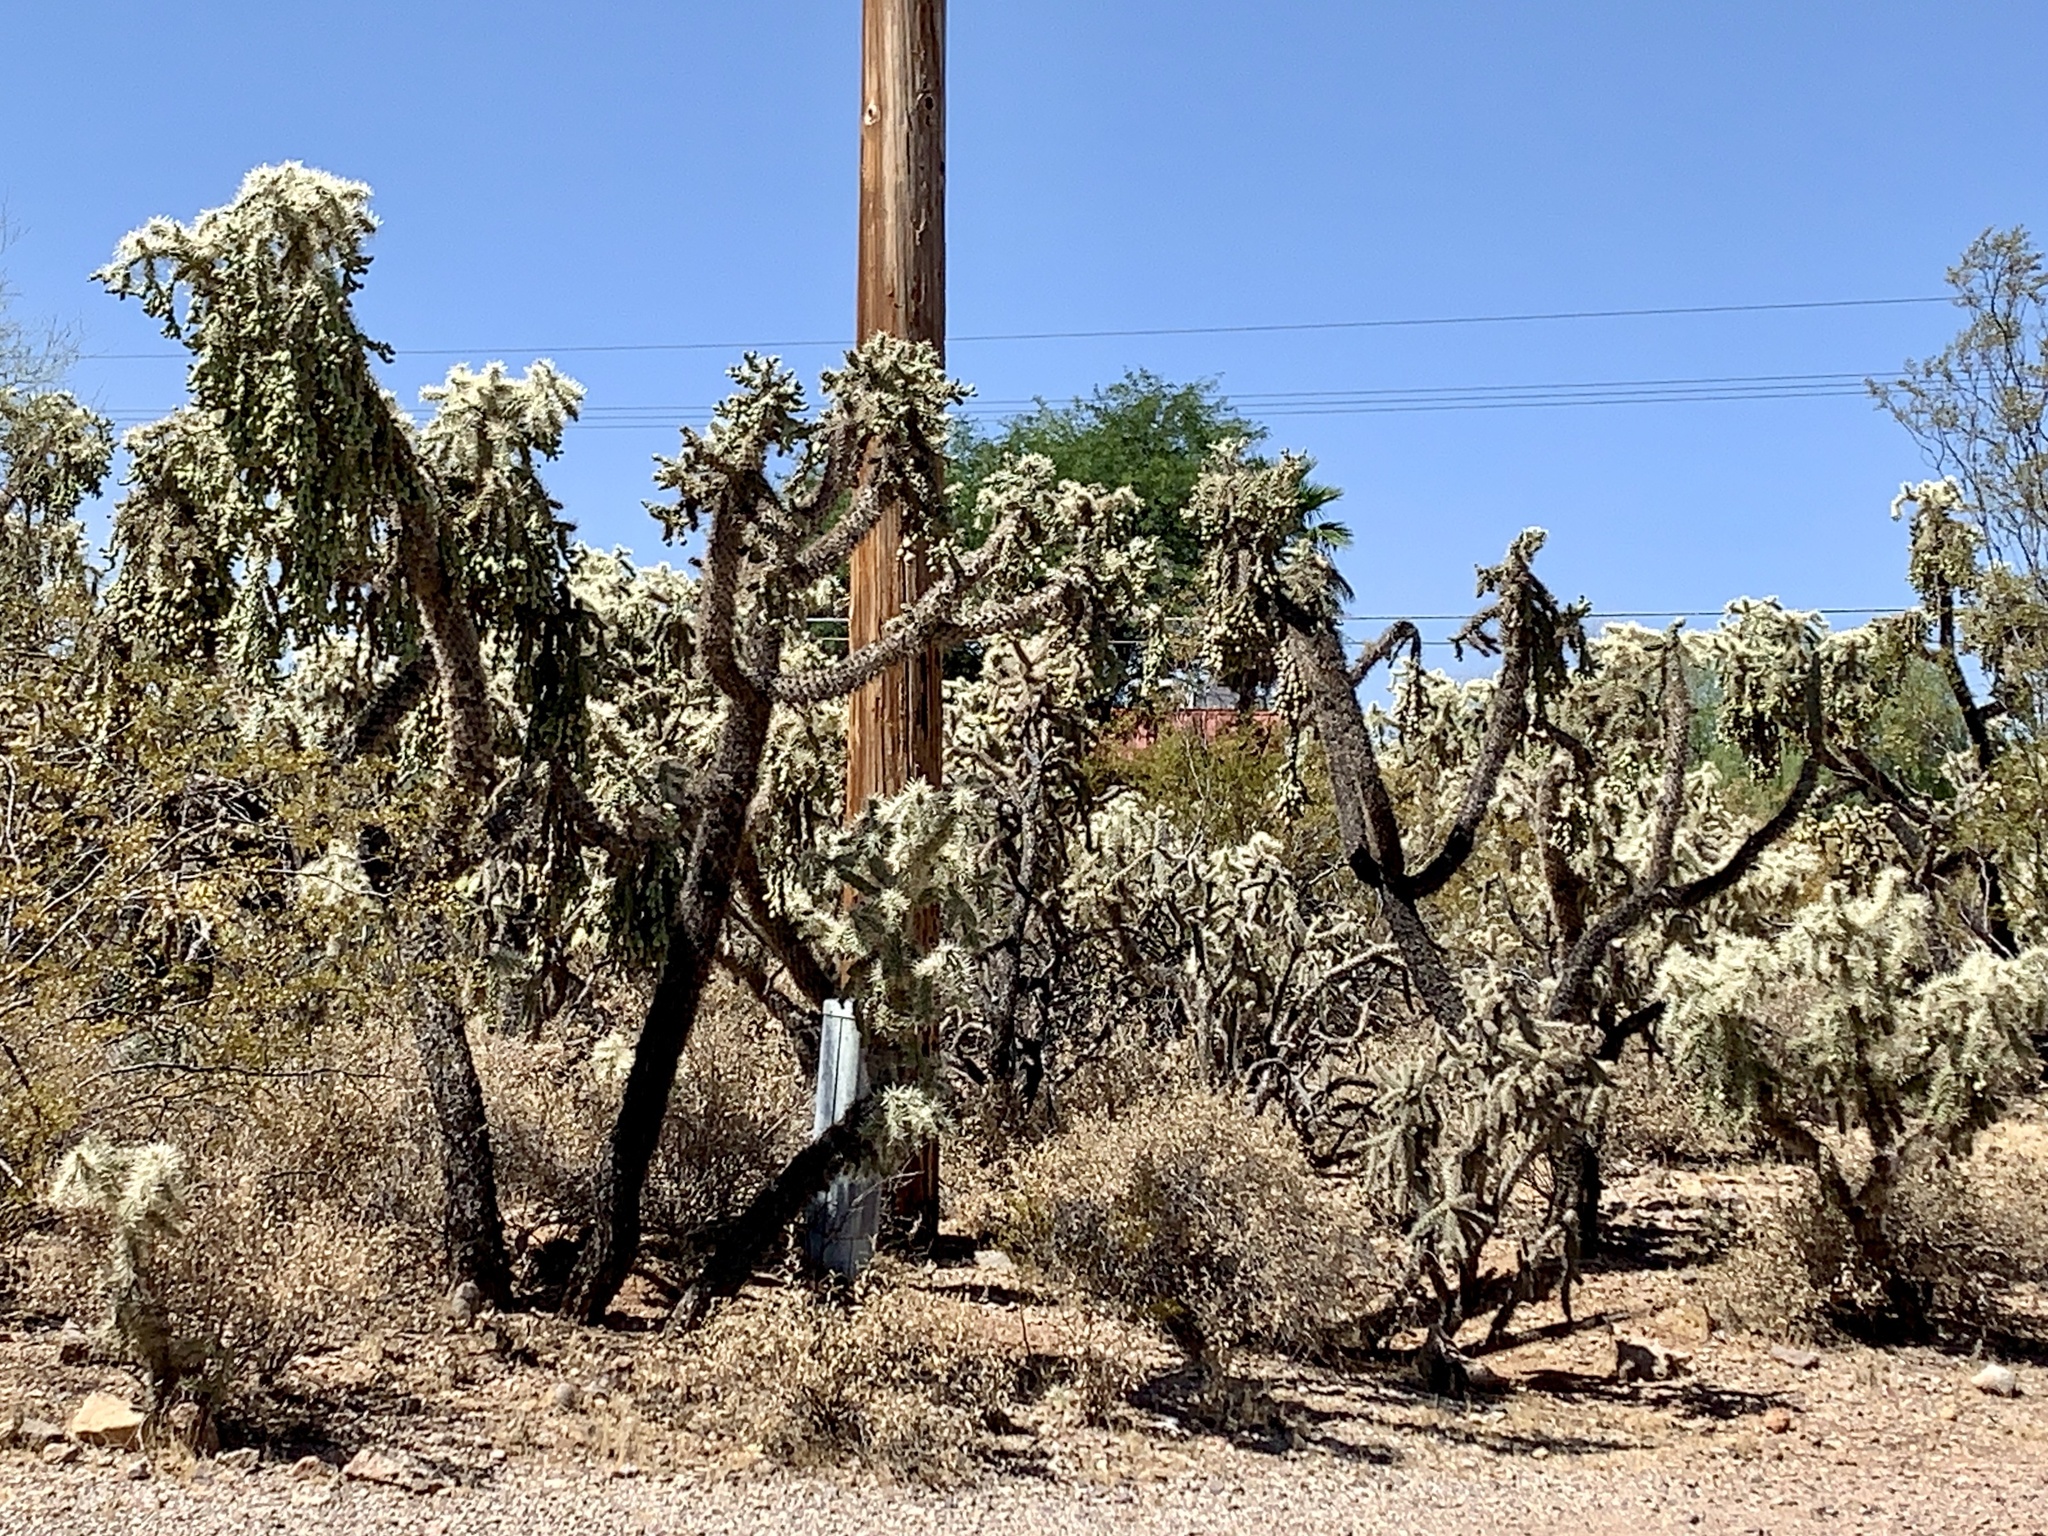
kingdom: Plantae
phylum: Tracheophyta
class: Magnoliopsida
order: Caryophyllales
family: Cactaceae
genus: Cylindropuntia
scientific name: Cylindropuntia fulgida
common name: Jumping cholla
